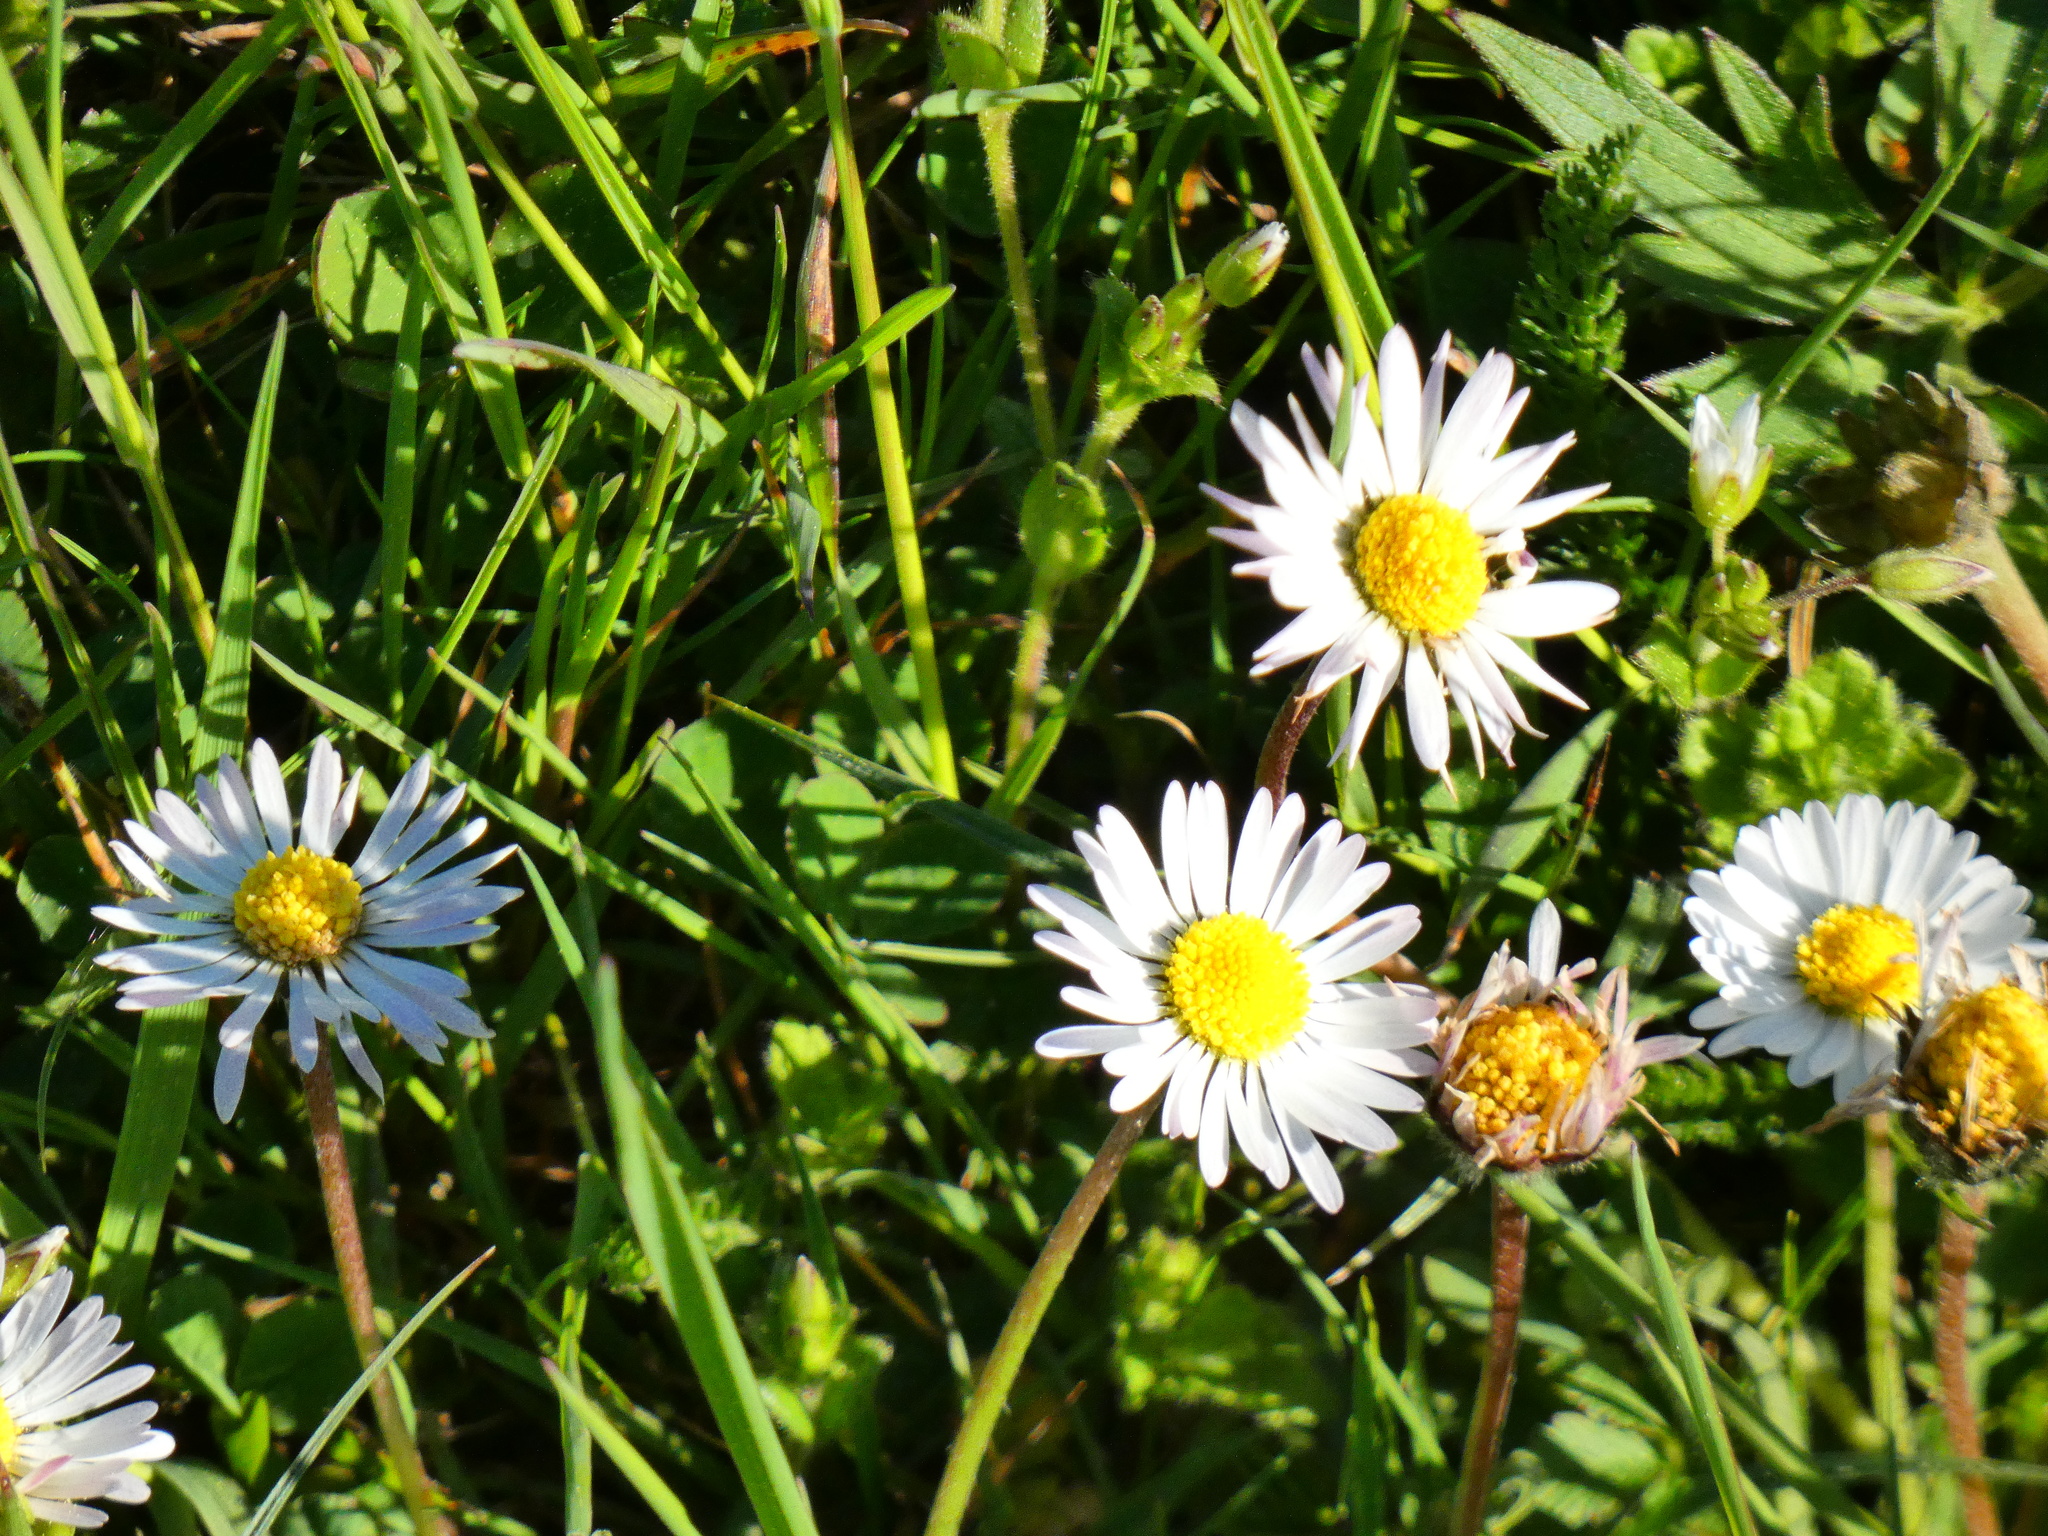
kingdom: Plantae
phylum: Tracheophyta
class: Magnoliopsida
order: Asterales
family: Asteraceae
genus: Bellis
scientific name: Bellis perennis
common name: Lawndaisy
